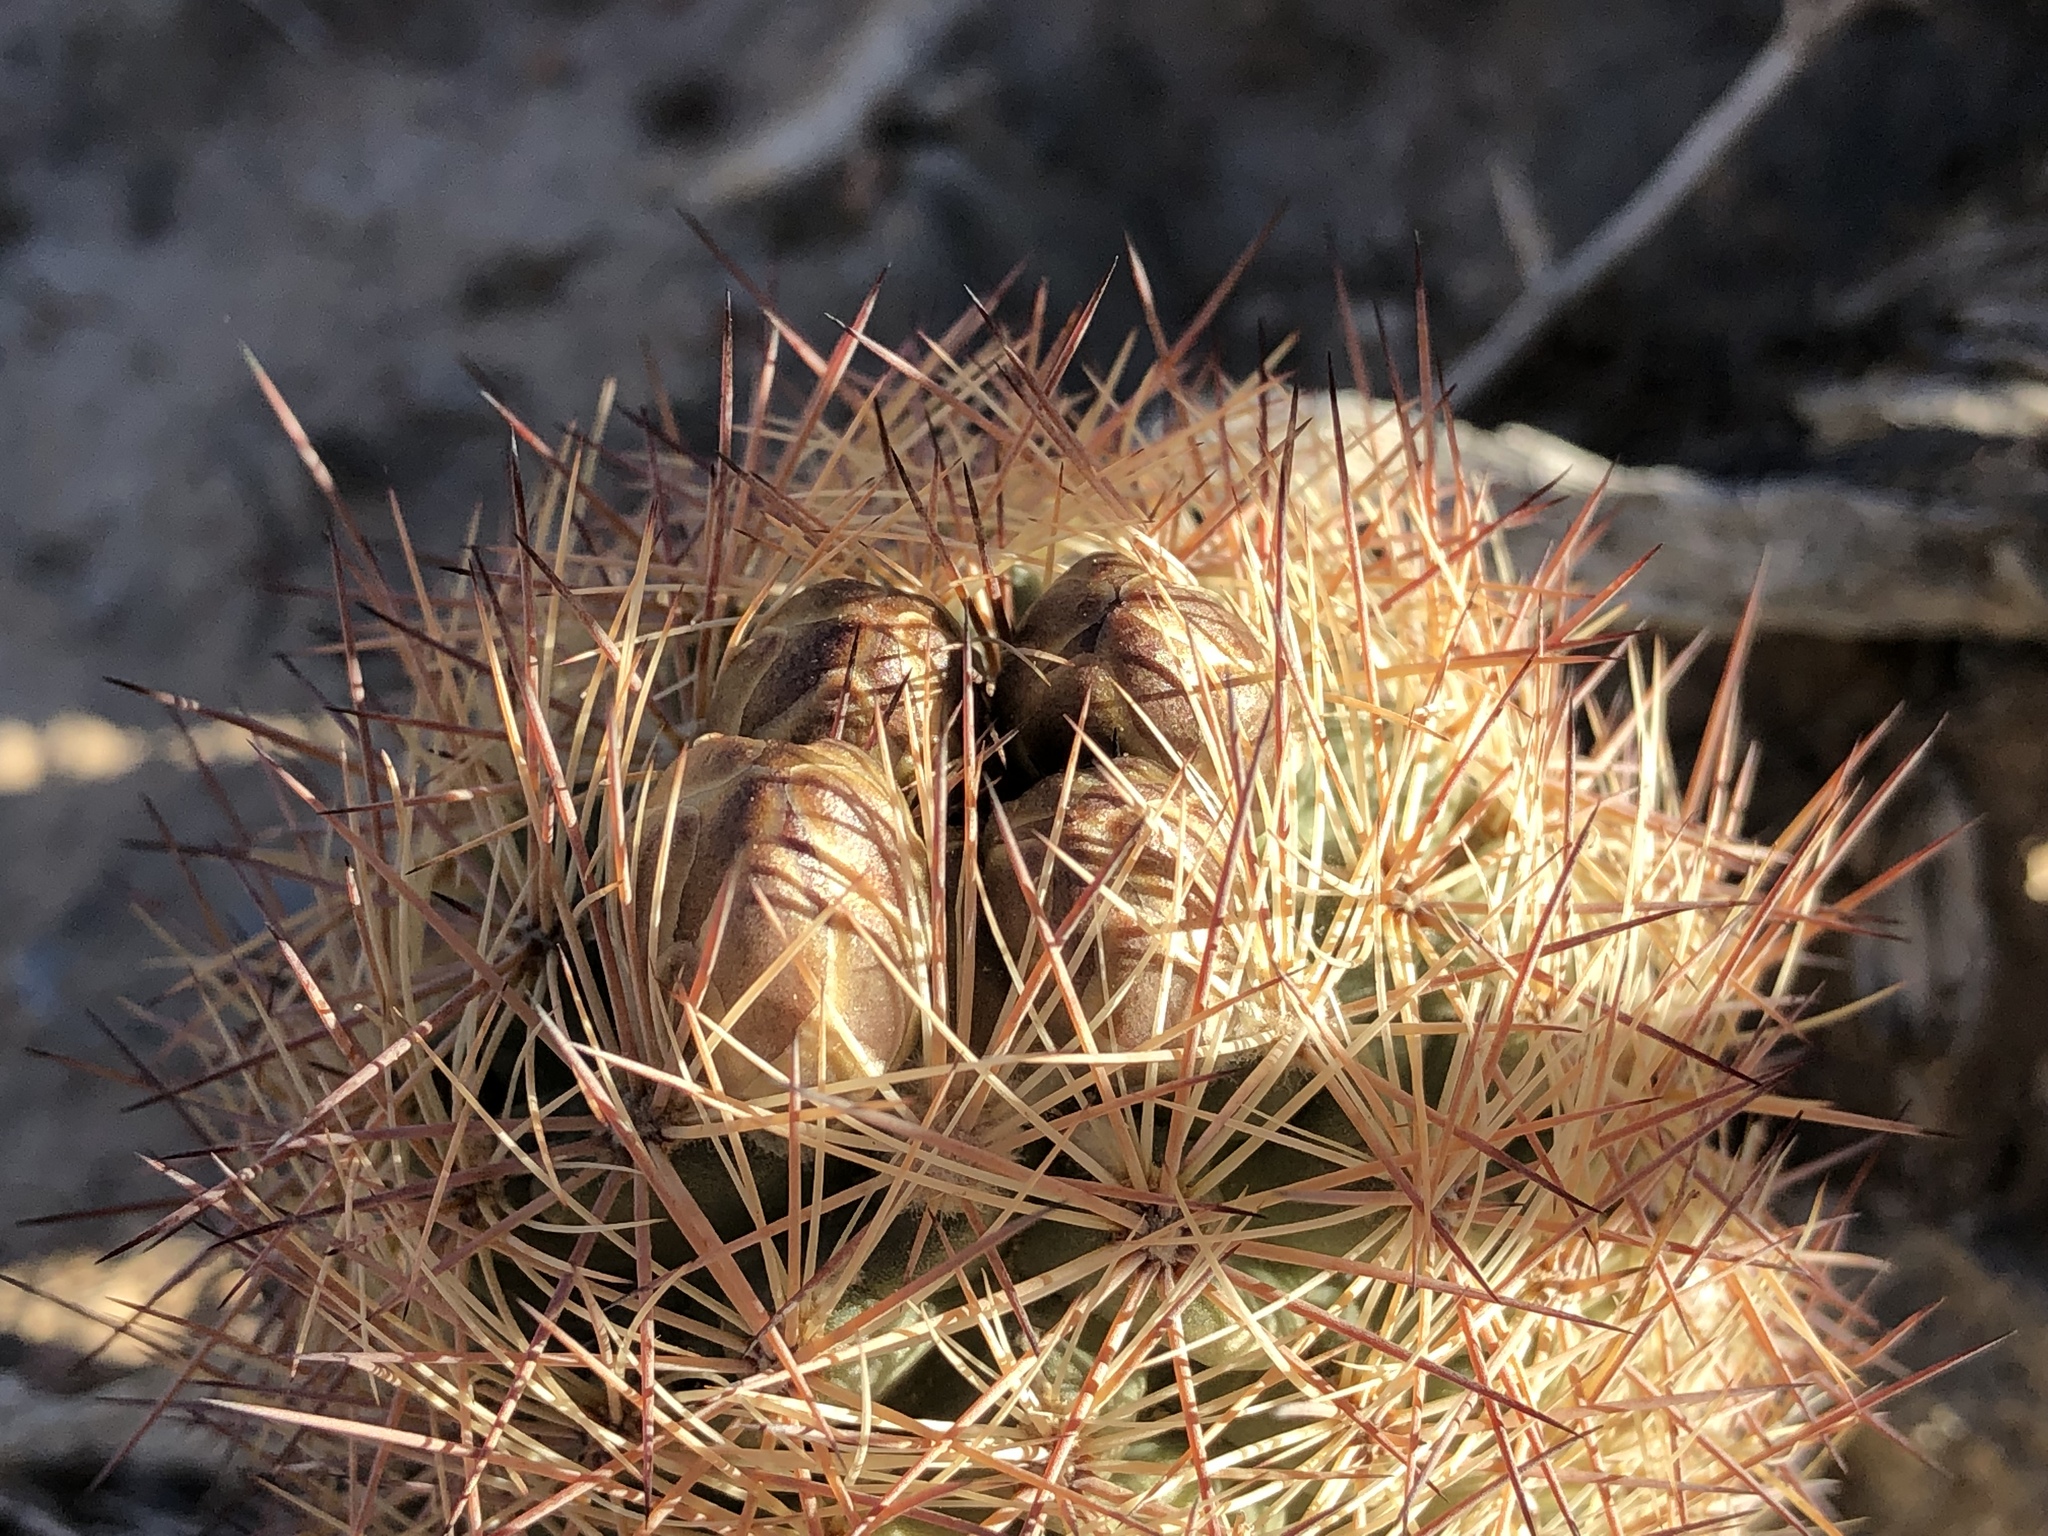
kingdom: Plantae
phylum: Tracheophyta
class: Magnoliopsida
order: Caryophyllales
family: Cactaceae
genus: Sclerocactus
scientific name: Sclerocactus intertextus
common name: White fish-hook cactus
